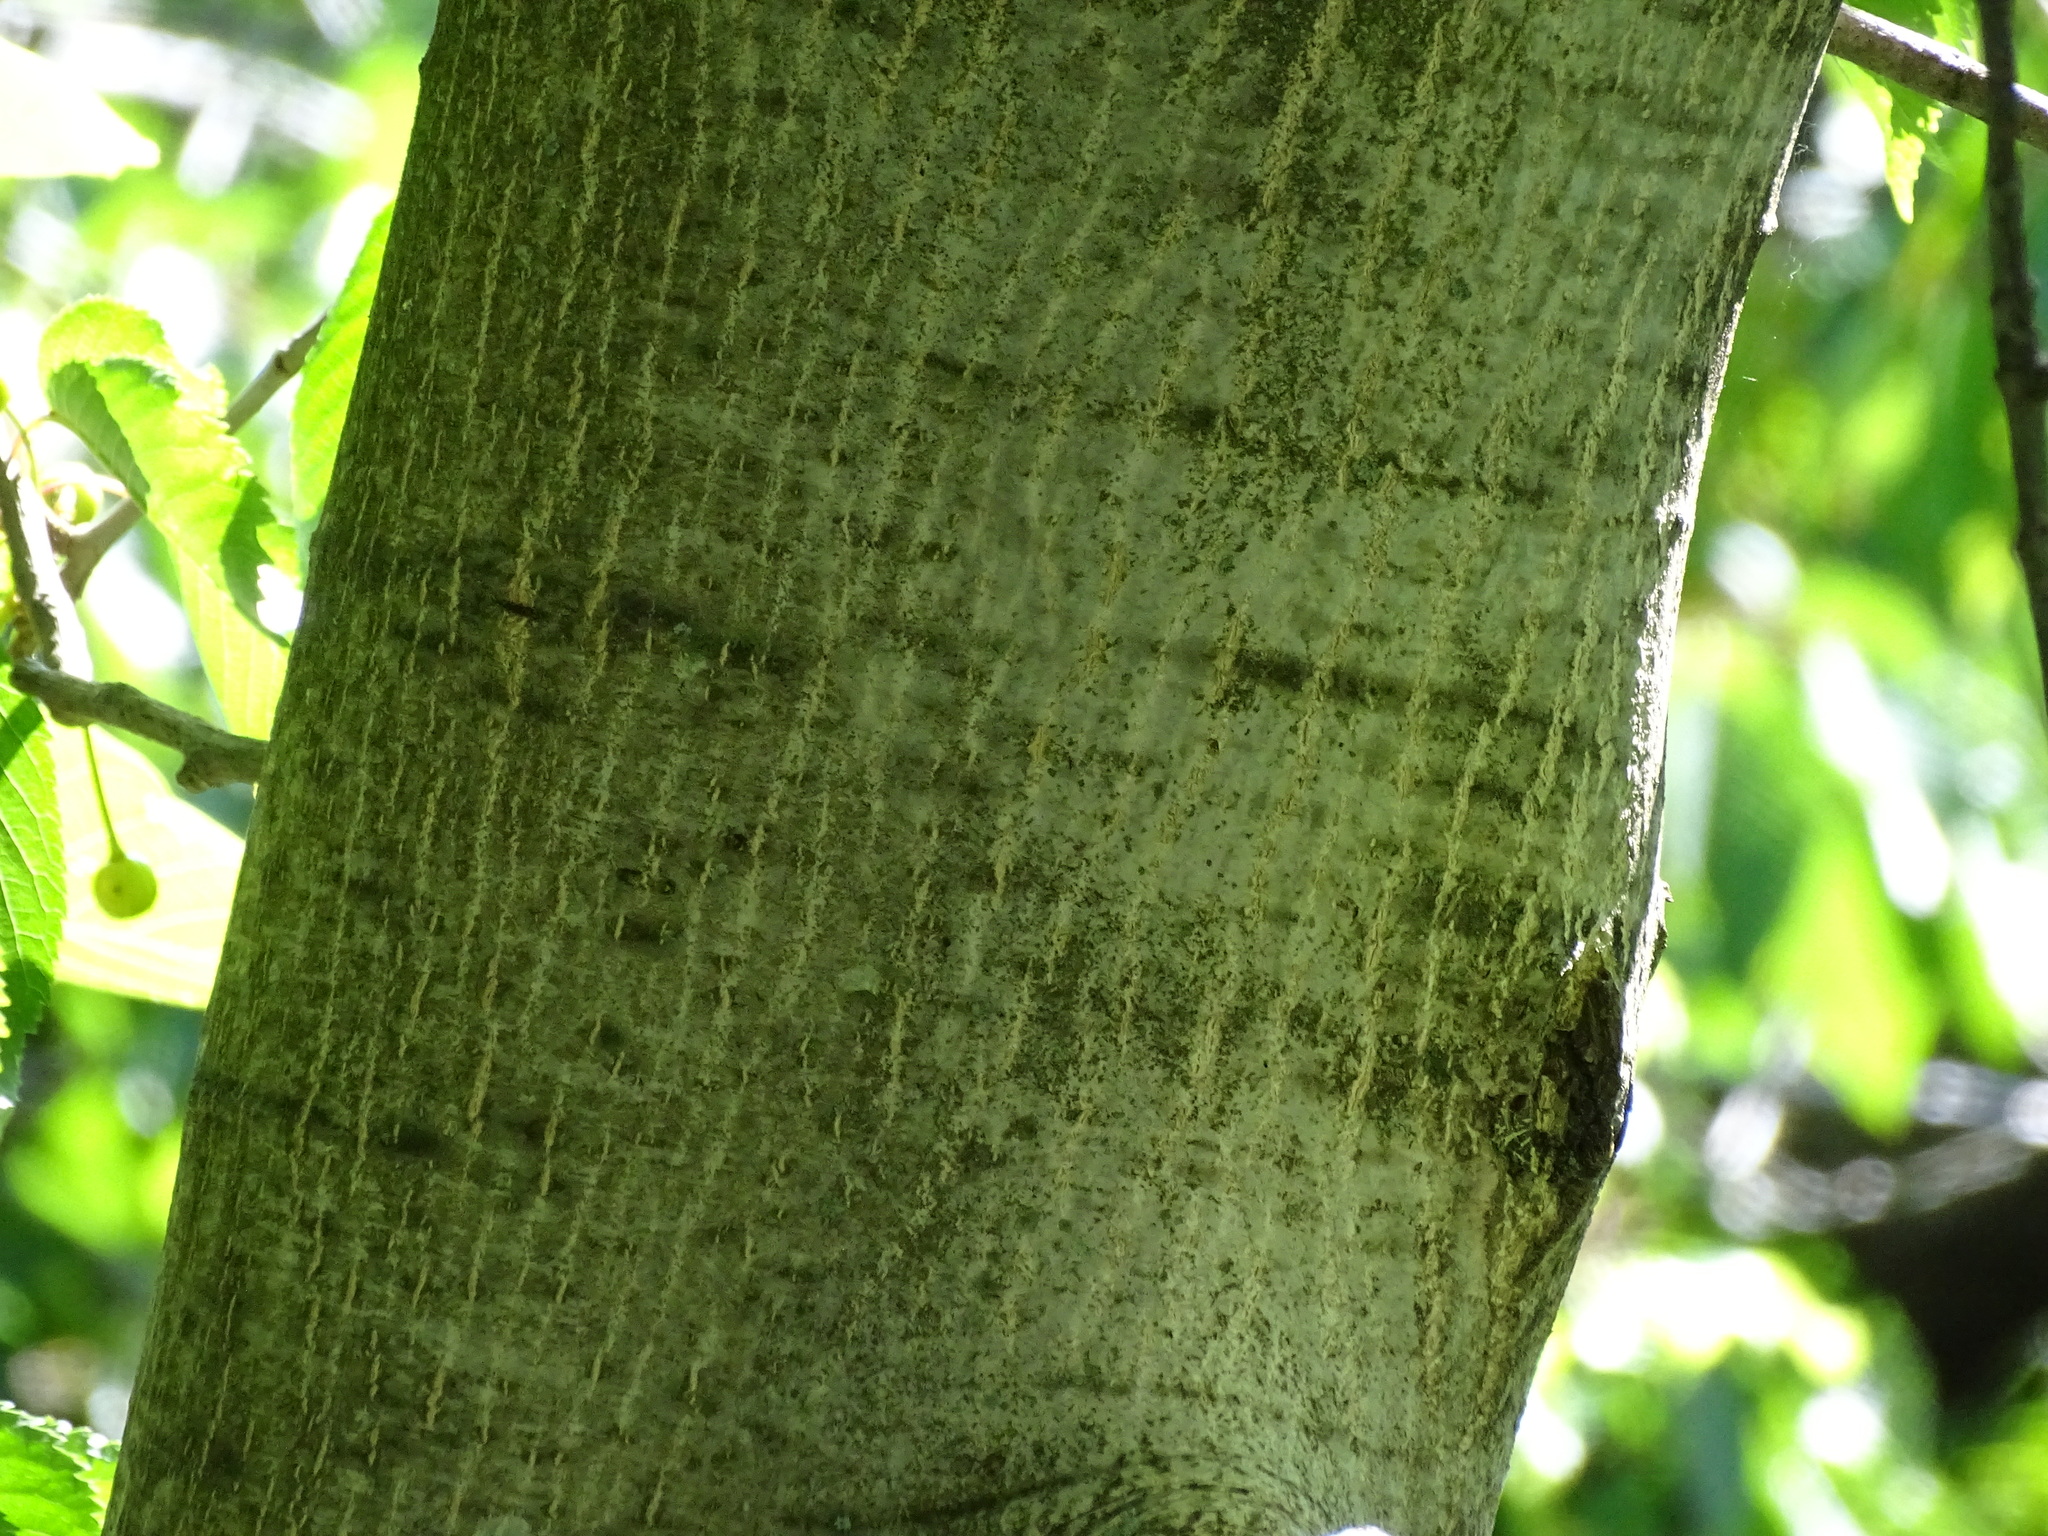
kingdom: Plantae
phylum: Tracheophyta
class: Magnoliopsida
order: Fagales
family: Juglandaceae
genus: Juglans
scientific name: Juglans regia
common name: Walnut
